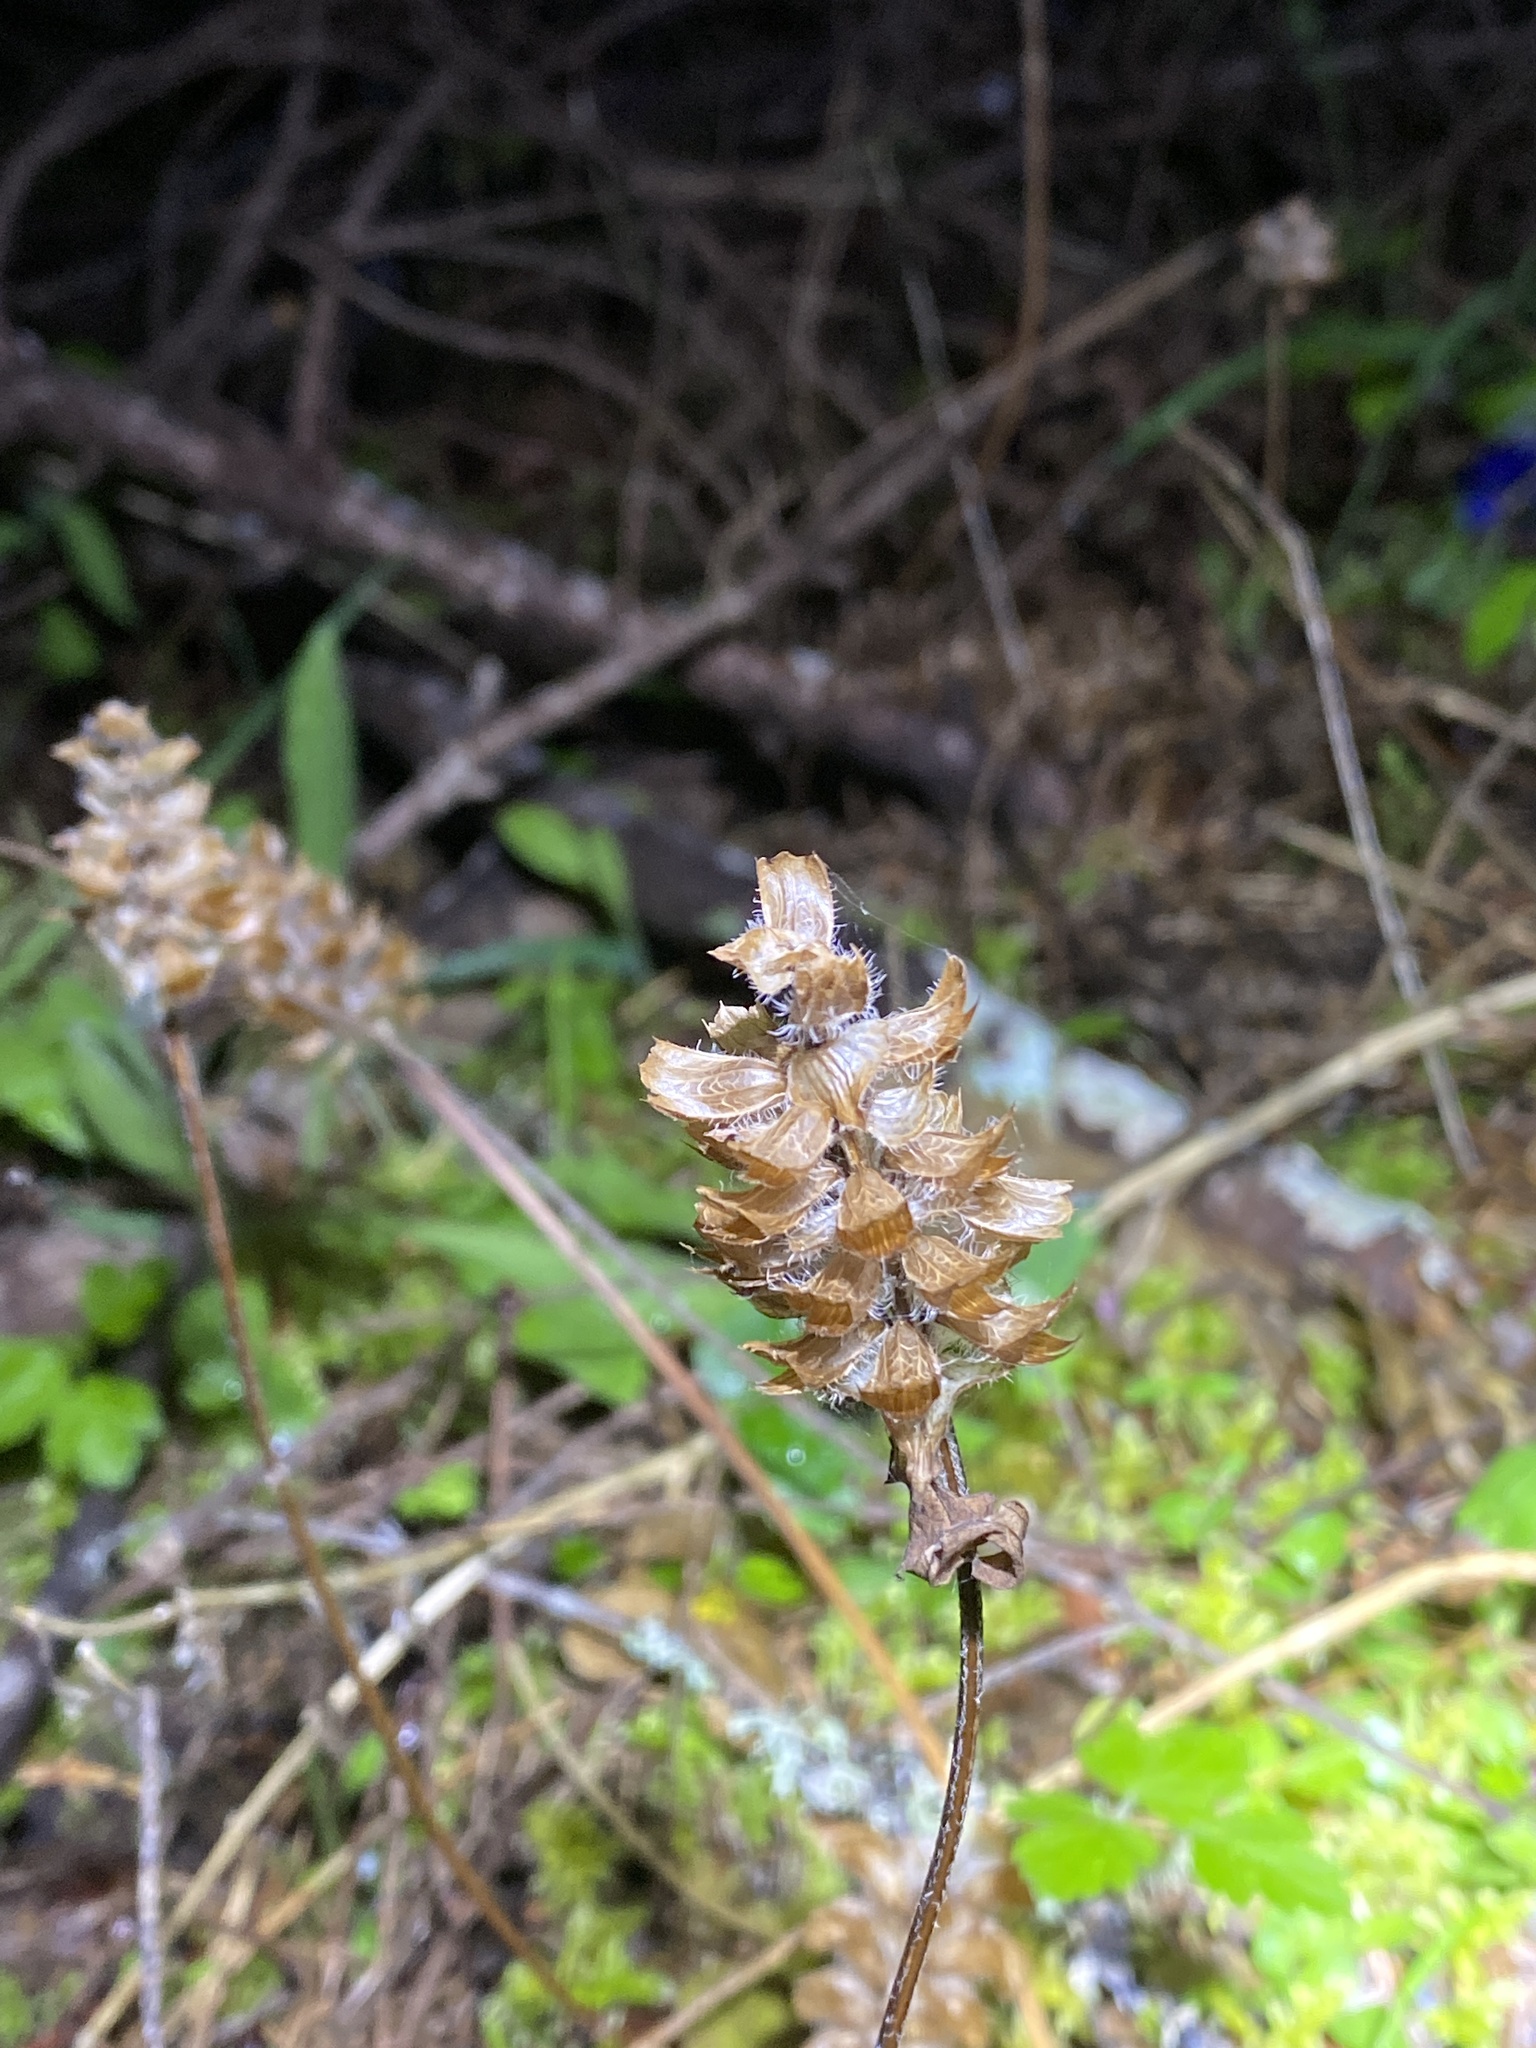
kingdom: Plantae
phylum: Tracheophyta
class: Magnoliopsida
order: Lamiales
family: Lamiaceae
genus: Prunella
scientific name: Prunella vulgaris
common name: Heal-all
